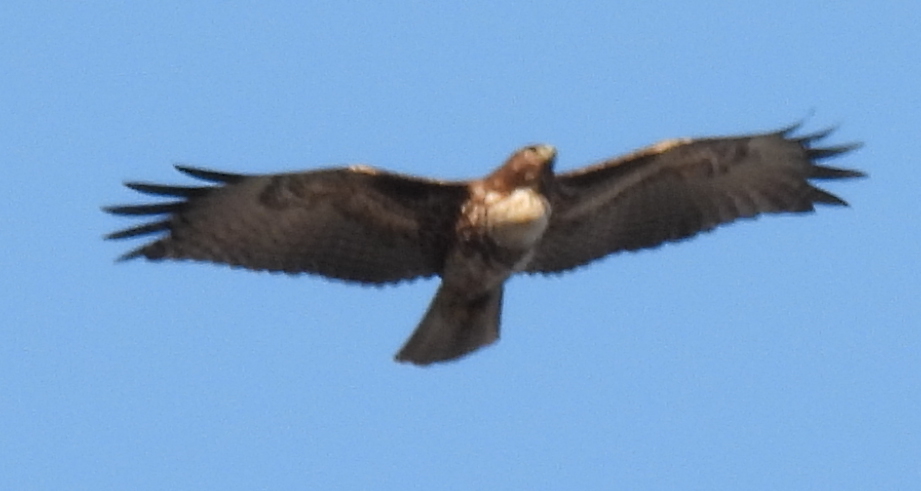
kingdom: Animalia
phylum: Chordata
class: Aves
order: Accipitriformes
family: Accipitridae
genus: Buteo
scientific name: Buteo jamaicensis
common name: Red-tailed hawk
